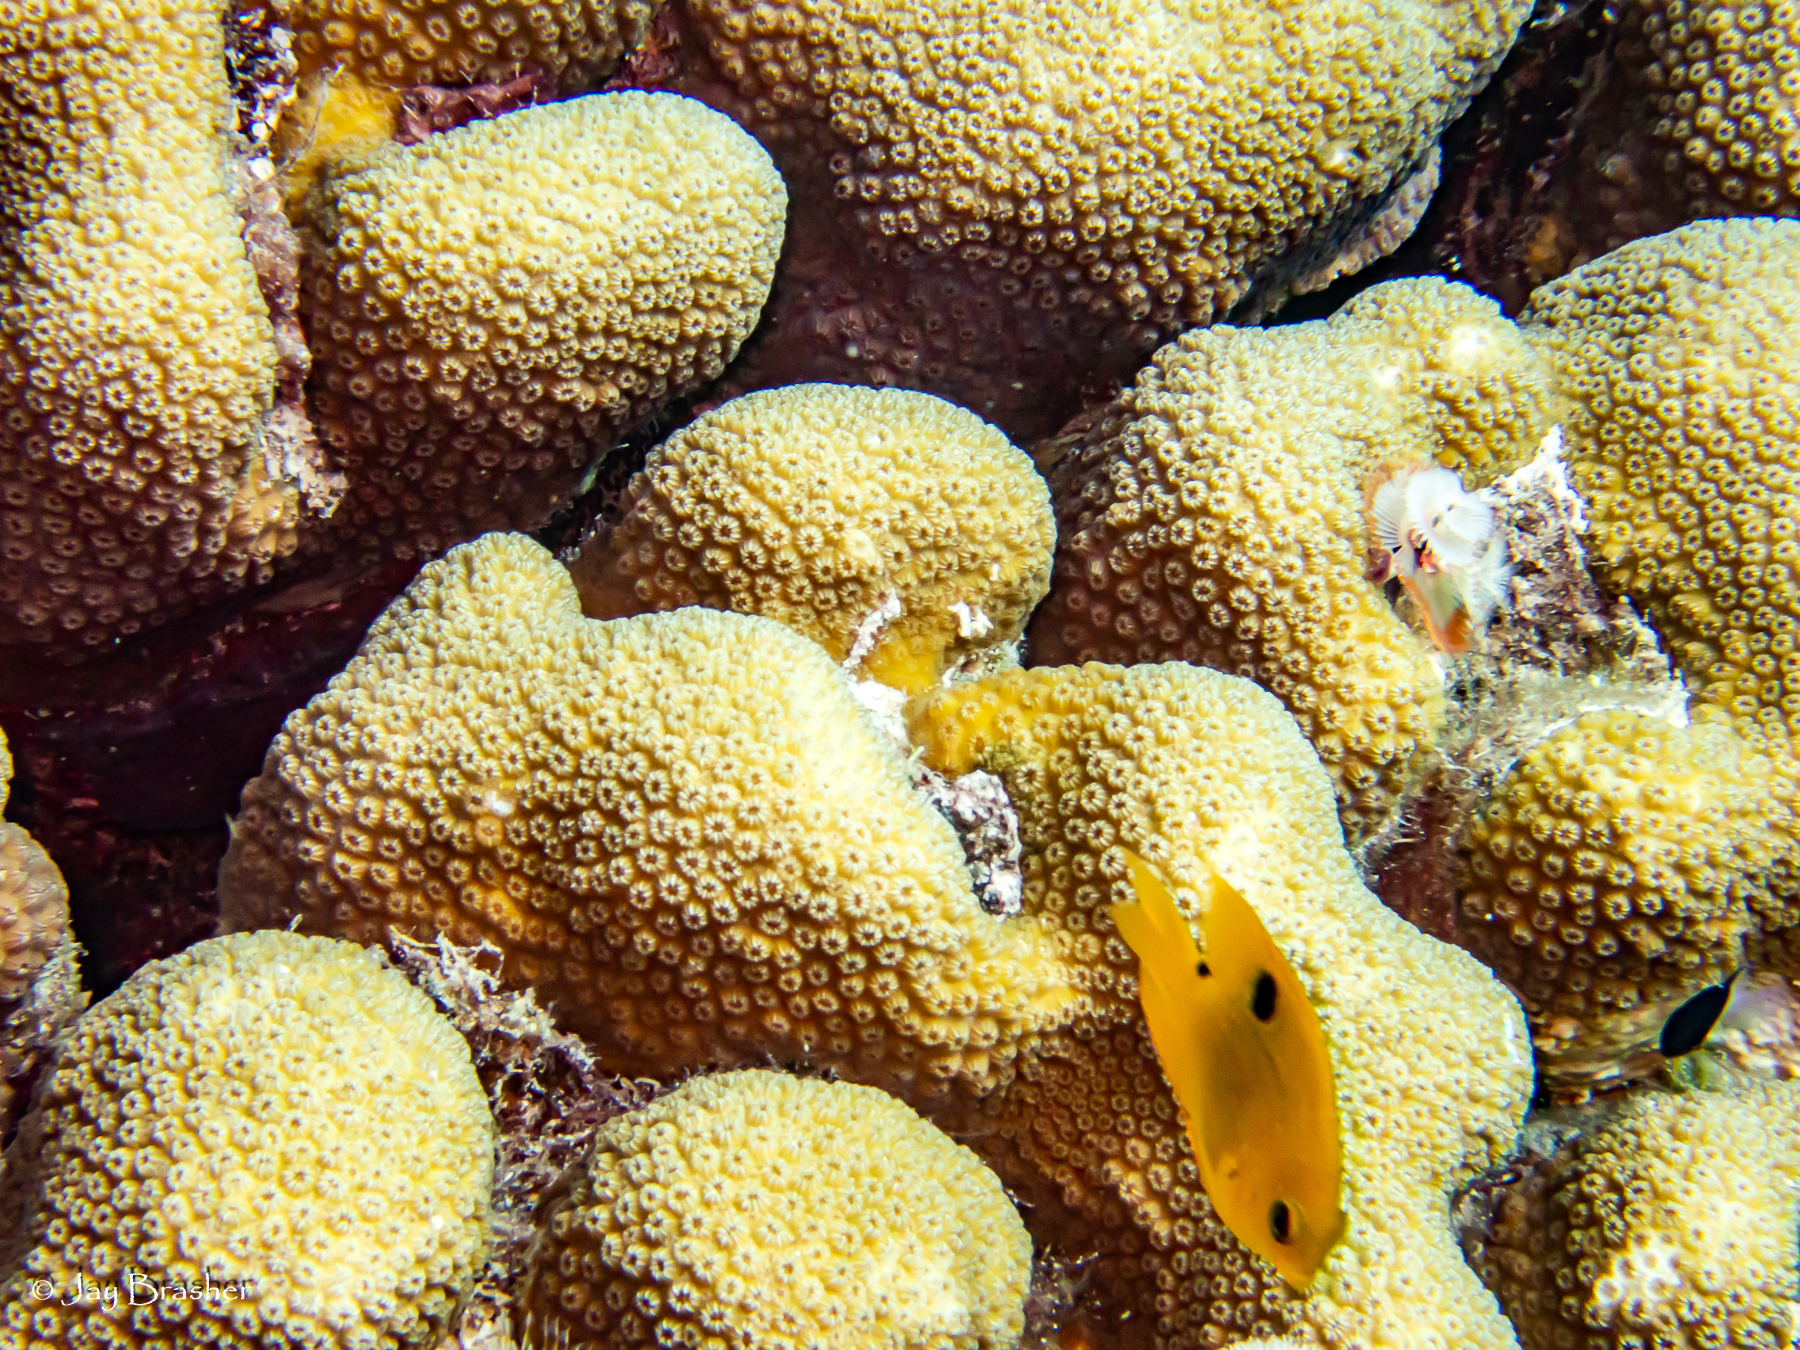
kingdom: Animalia
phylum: Annelida
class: Polychaeta
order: Sabellida
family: Serpulidae
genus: Spirobranchus
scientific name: Spirobranchus giganteus
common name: Christmas tree worm
